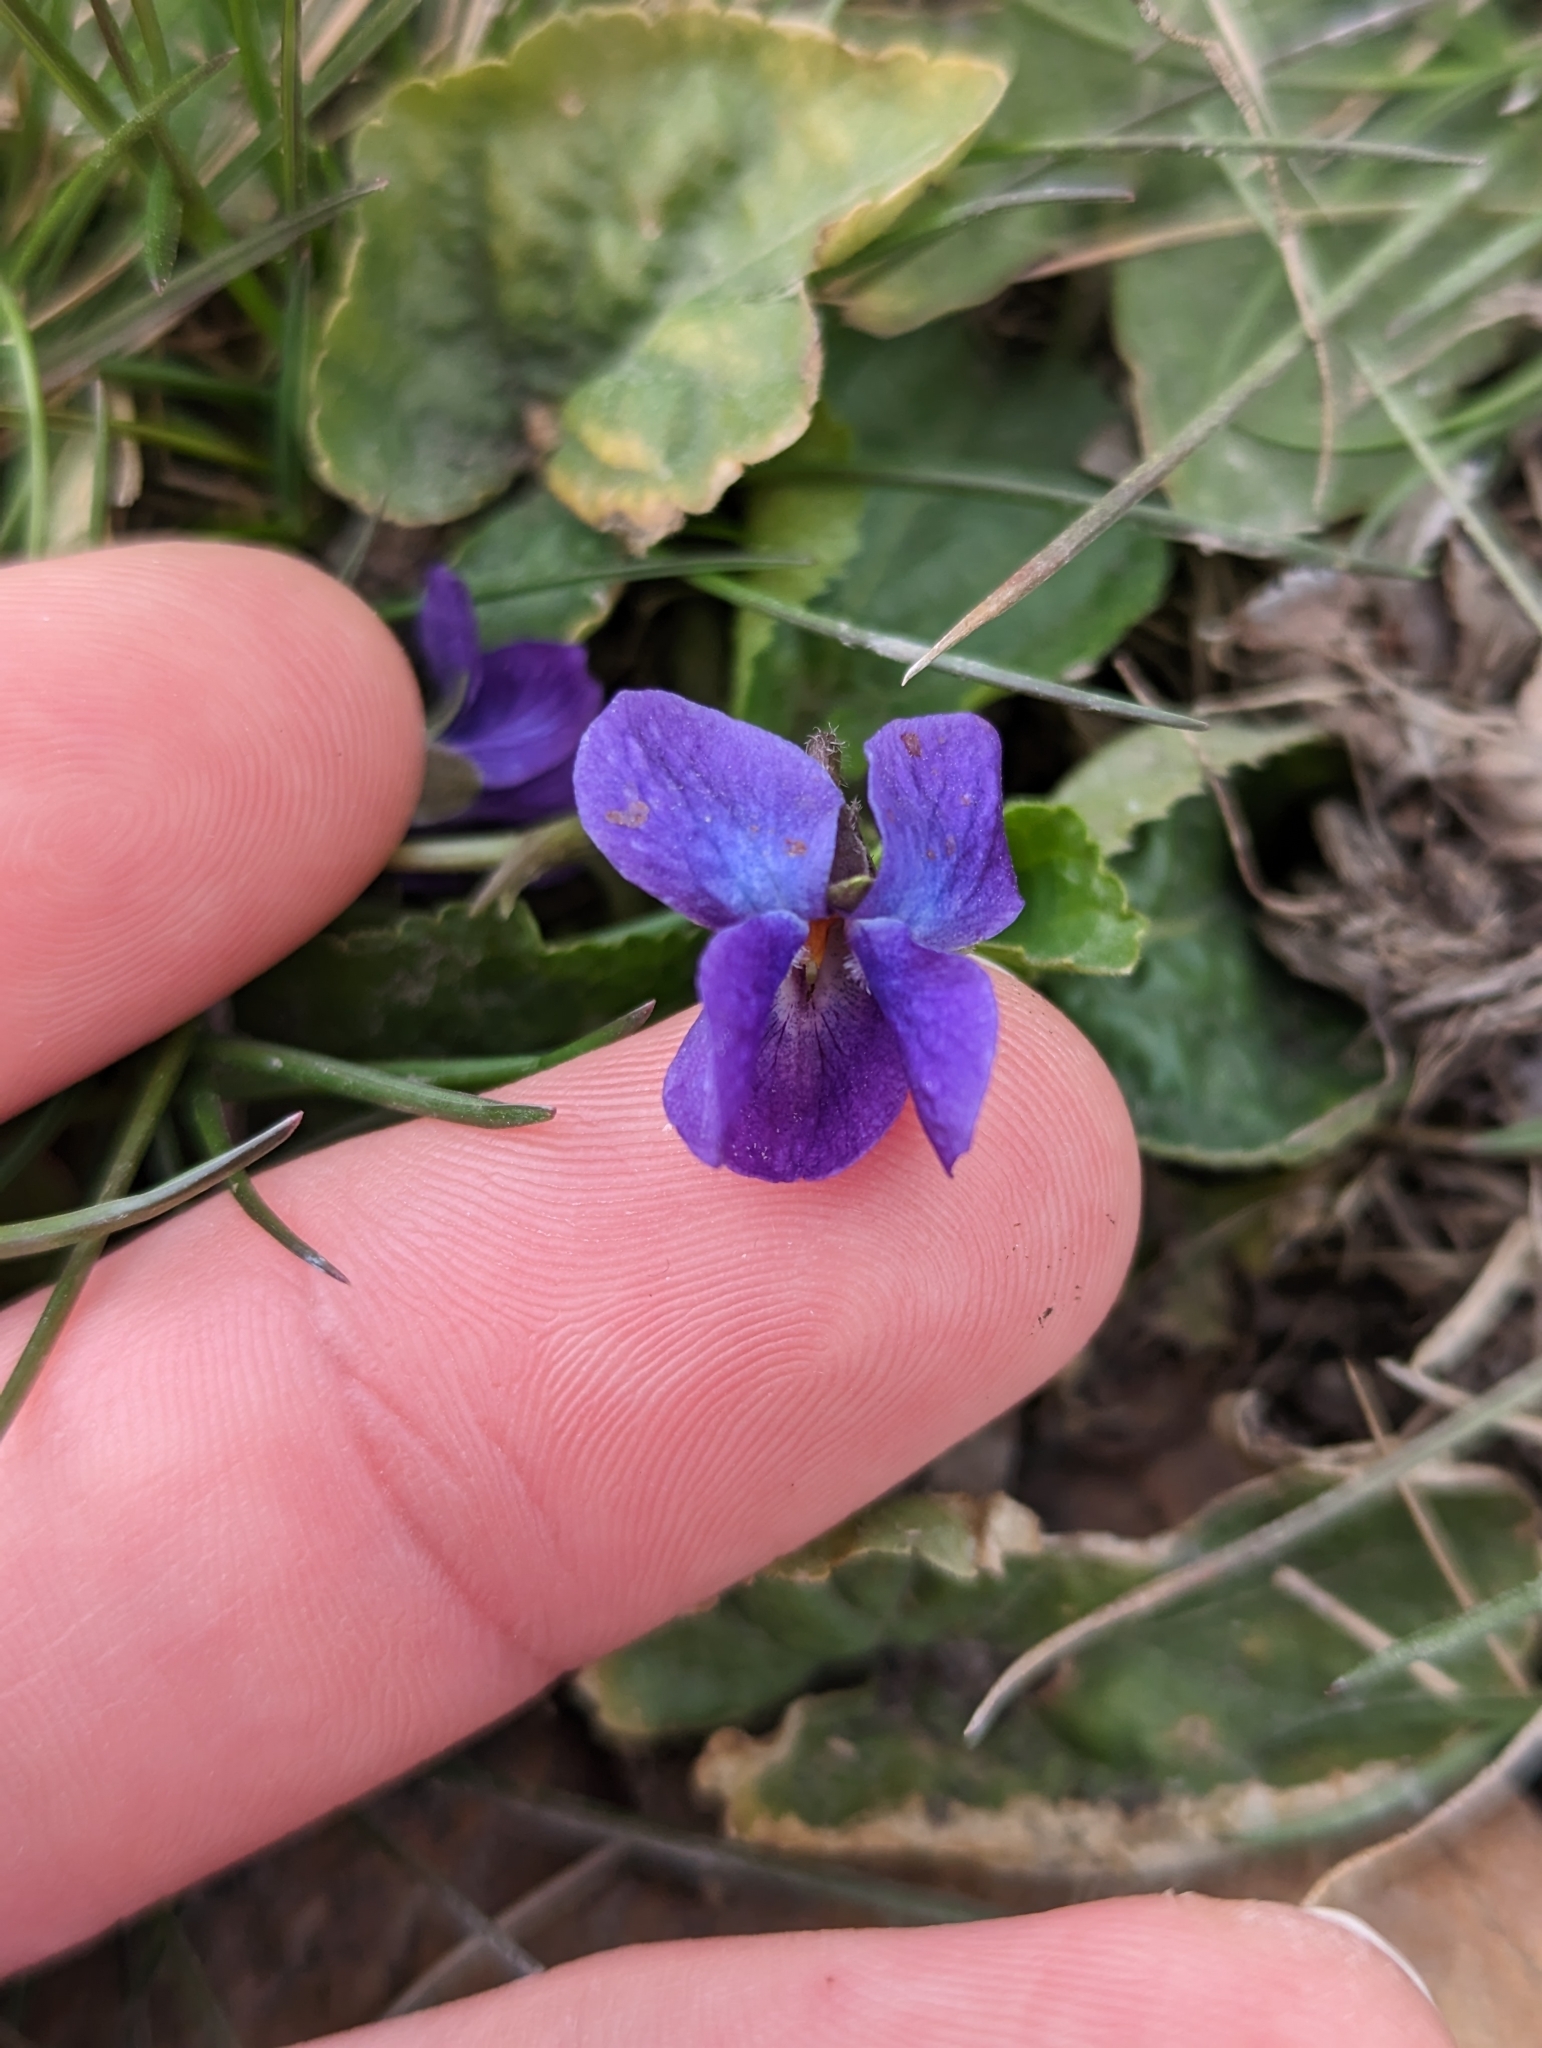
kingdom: Plantae
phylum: Tracheophyta
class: Magnoliopsida
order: Malpighiales
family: Violaceae
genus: Viola
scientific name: Viola odorata
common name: Sweet violet
